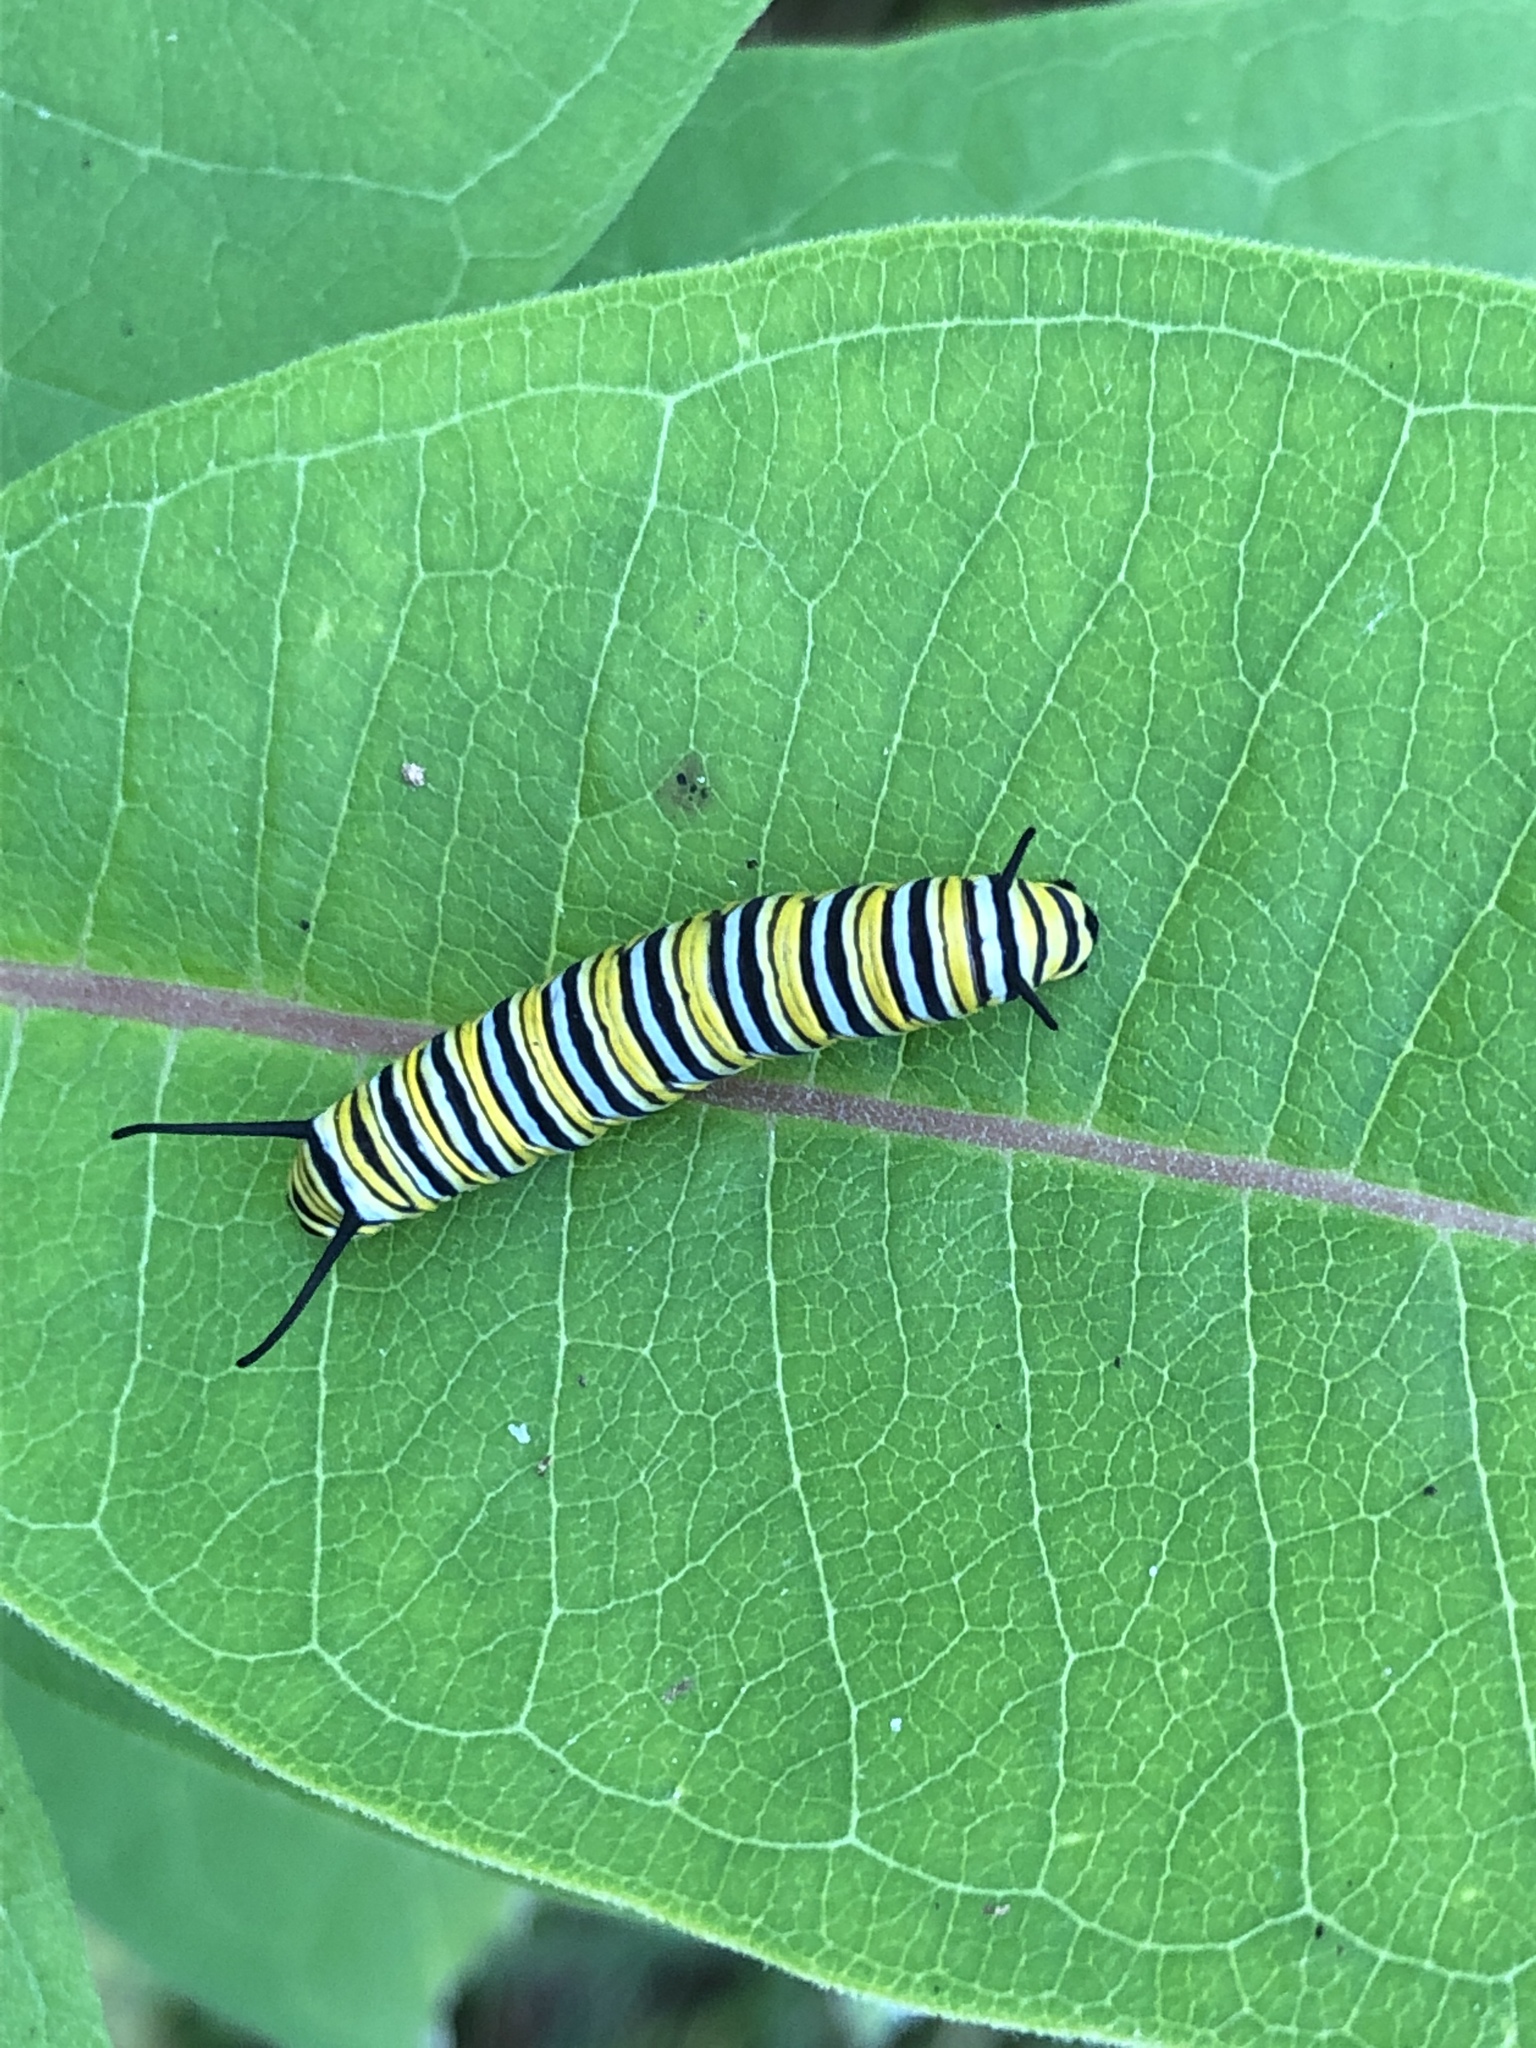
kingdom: Animalia
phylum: Arthropoda
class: Insecta
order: Lepidoptera
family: Nymphalidae
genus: Danaus
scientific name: Danaus plexippus
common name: Monarch
